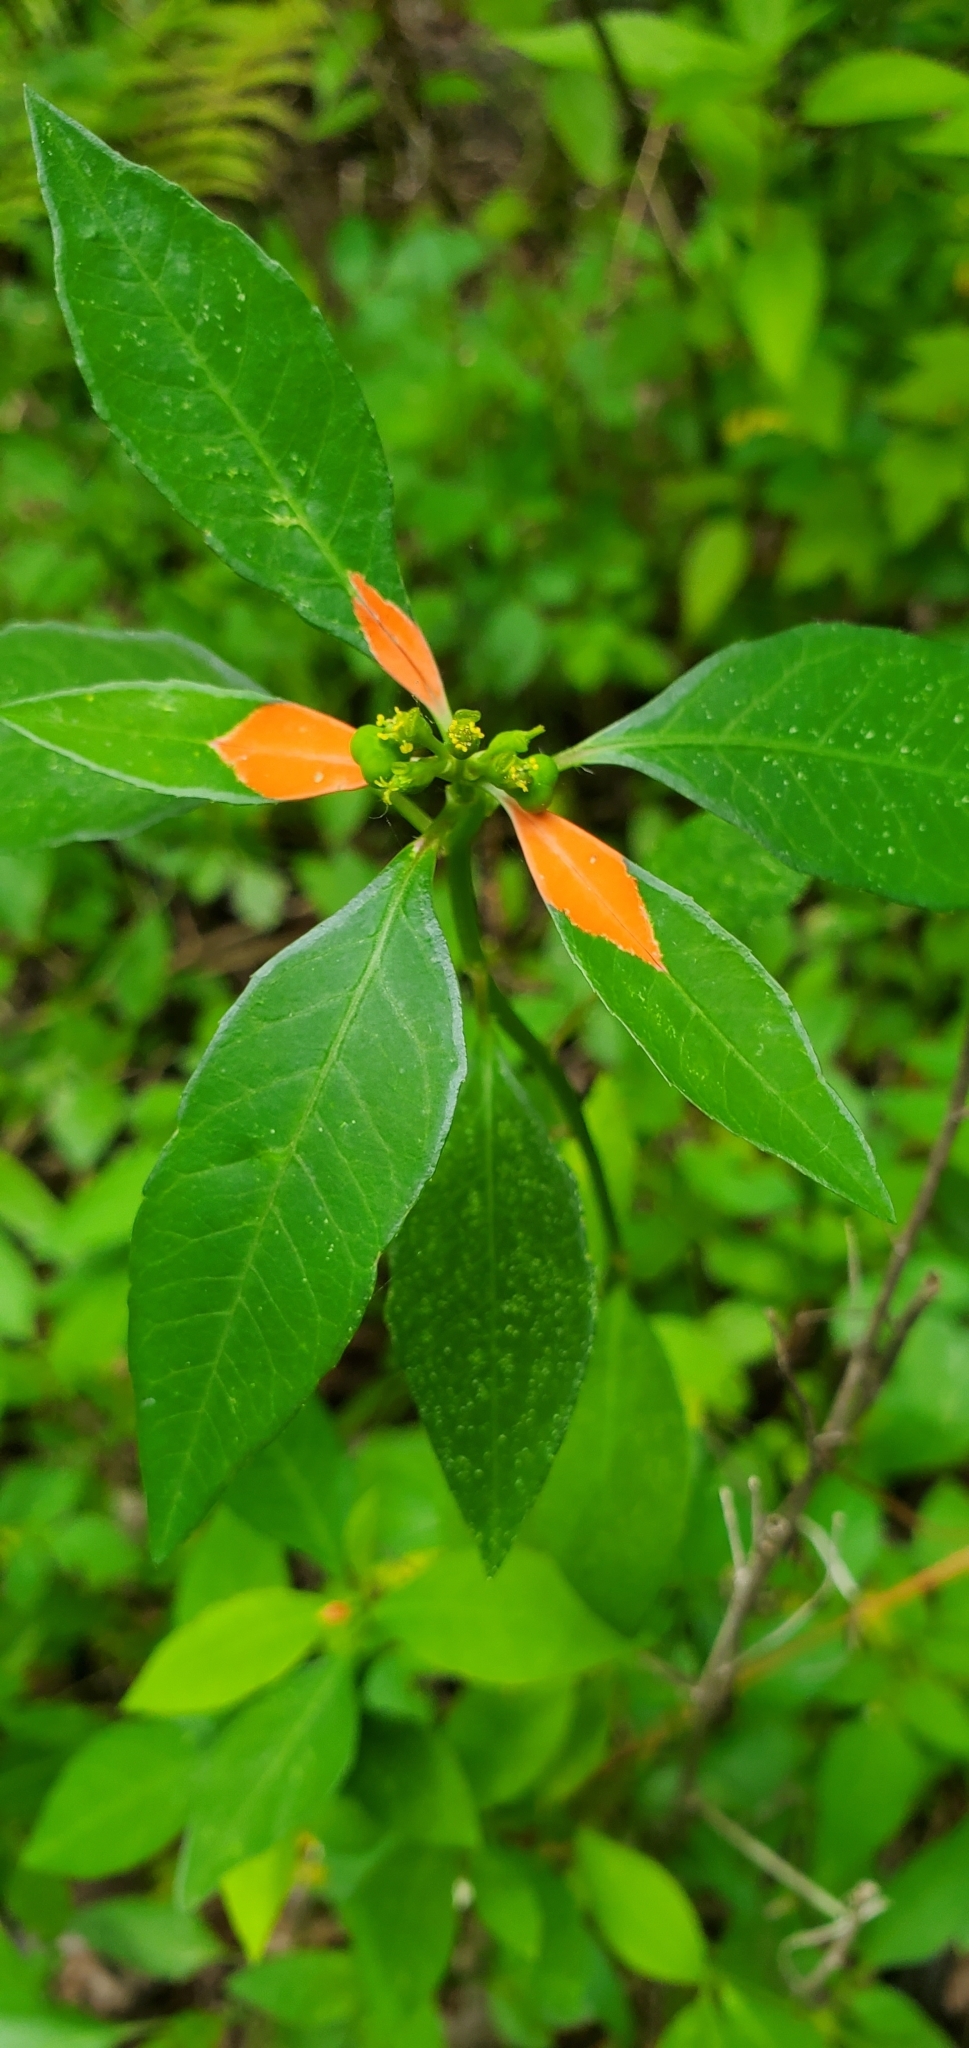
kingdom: Plantae
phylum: Tracheophyta
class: Magnoliopsida
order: Malpighiales
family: Euphorbiaceae
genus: Euphorbia
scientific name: Euphorbia heterophylla
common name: Mexican fireplant
